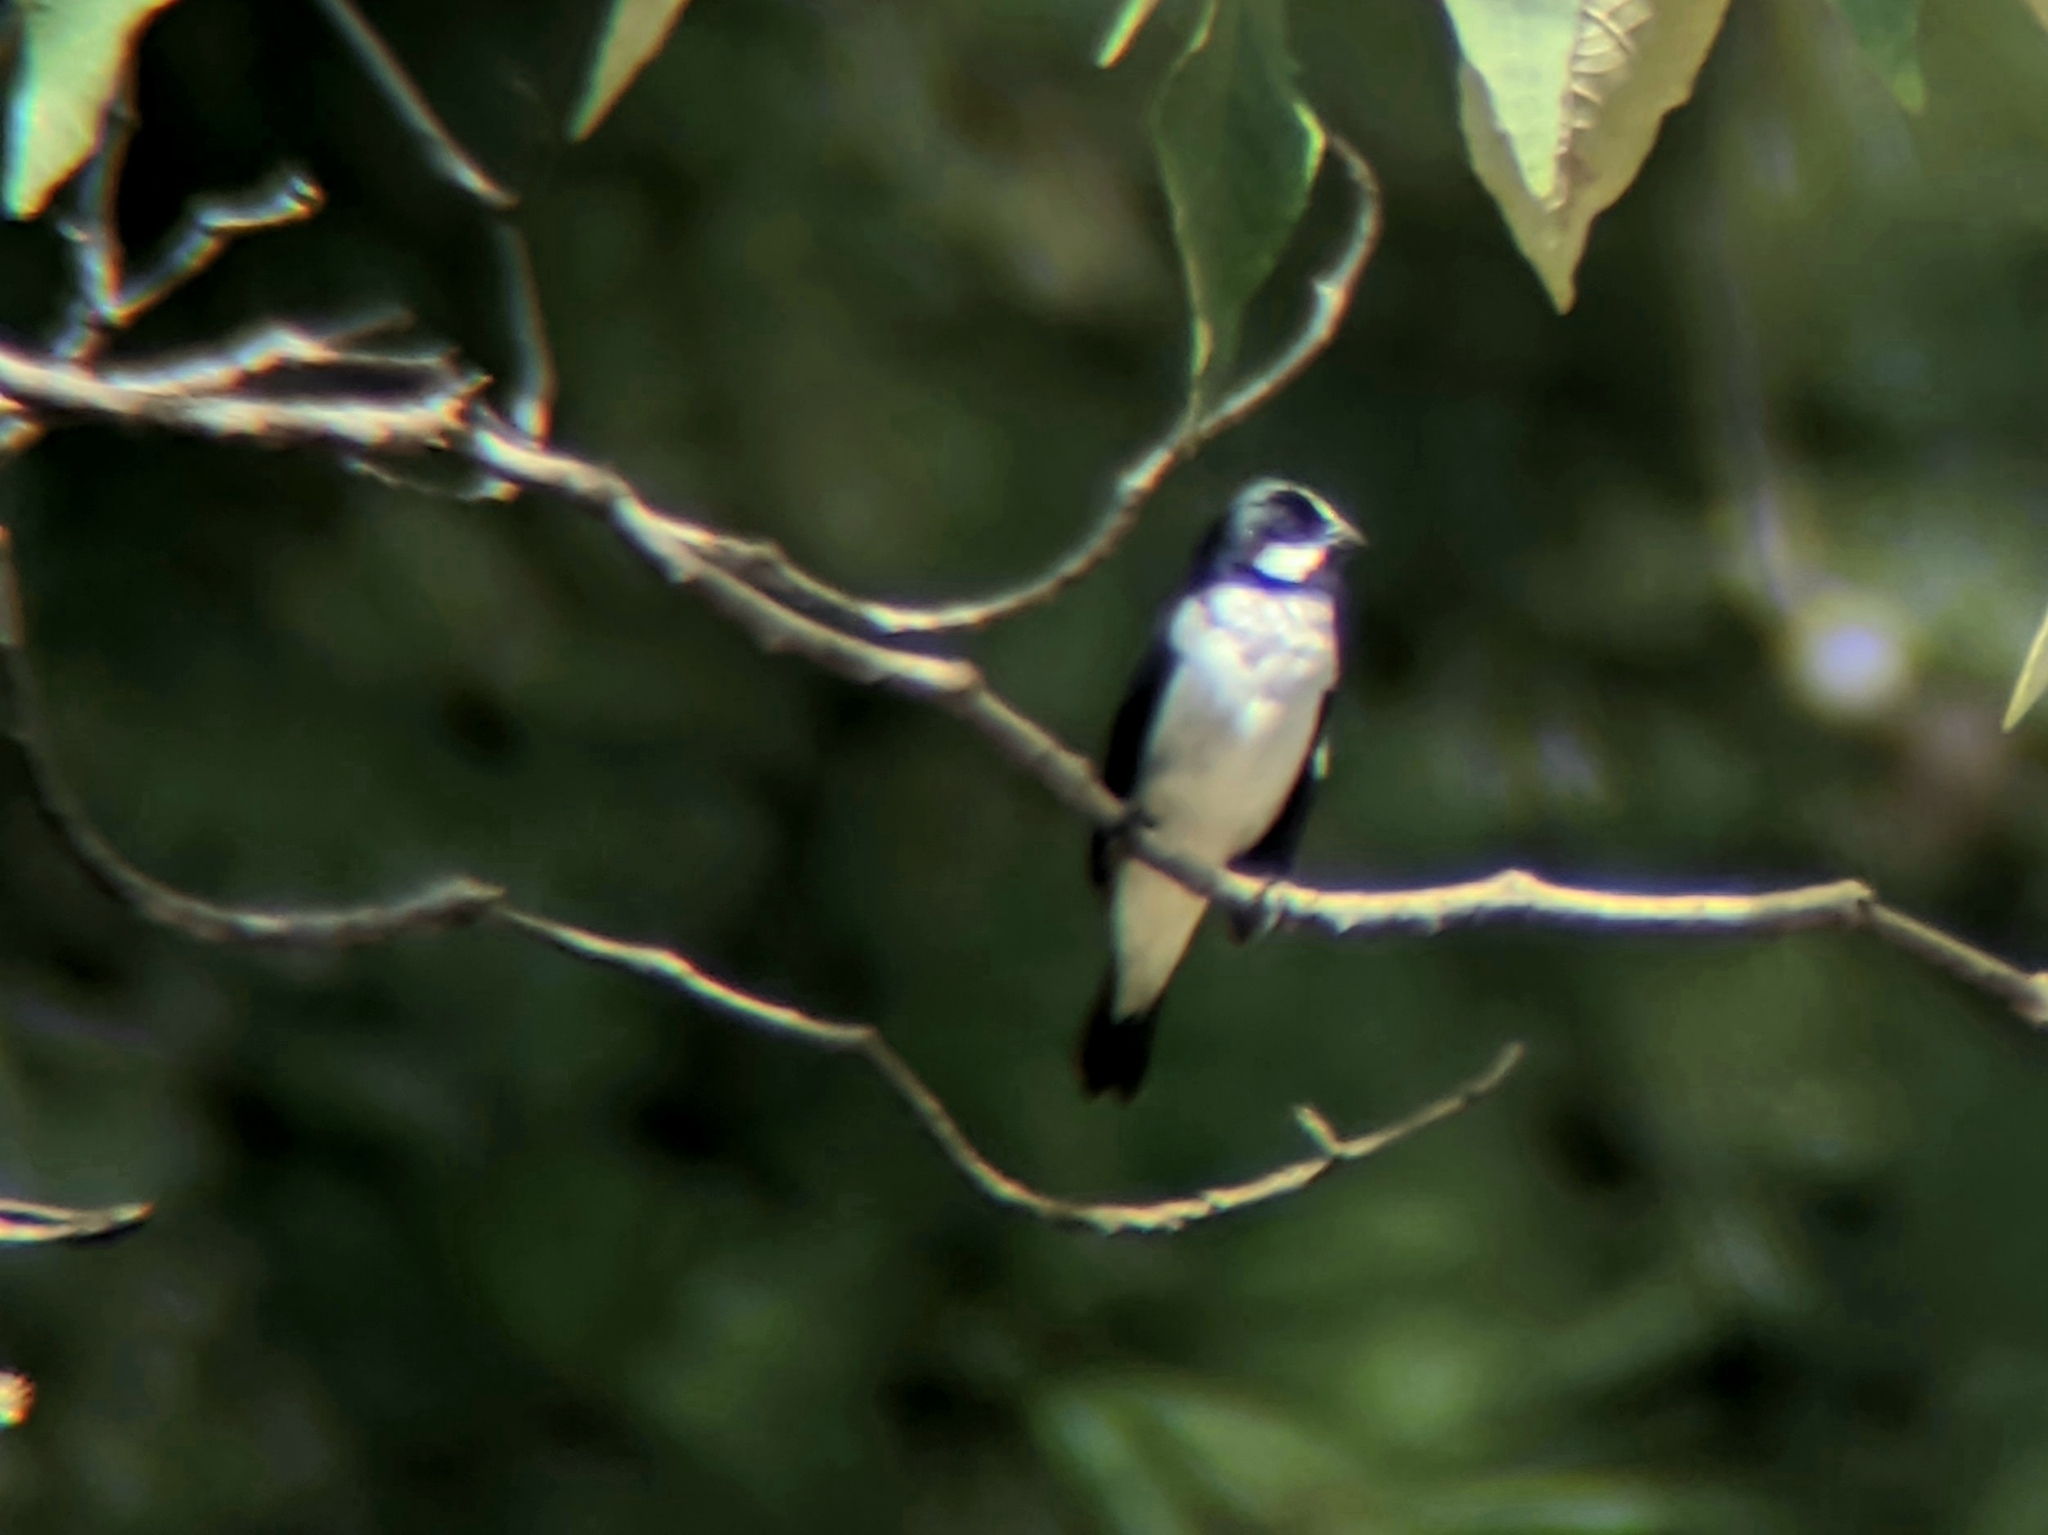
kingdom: Animalia
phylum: Chordata
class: Aves
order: Passeriformes
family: Thraupidae
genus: Sporophila
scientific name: Sporophila lineola
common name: Lined seedeater
